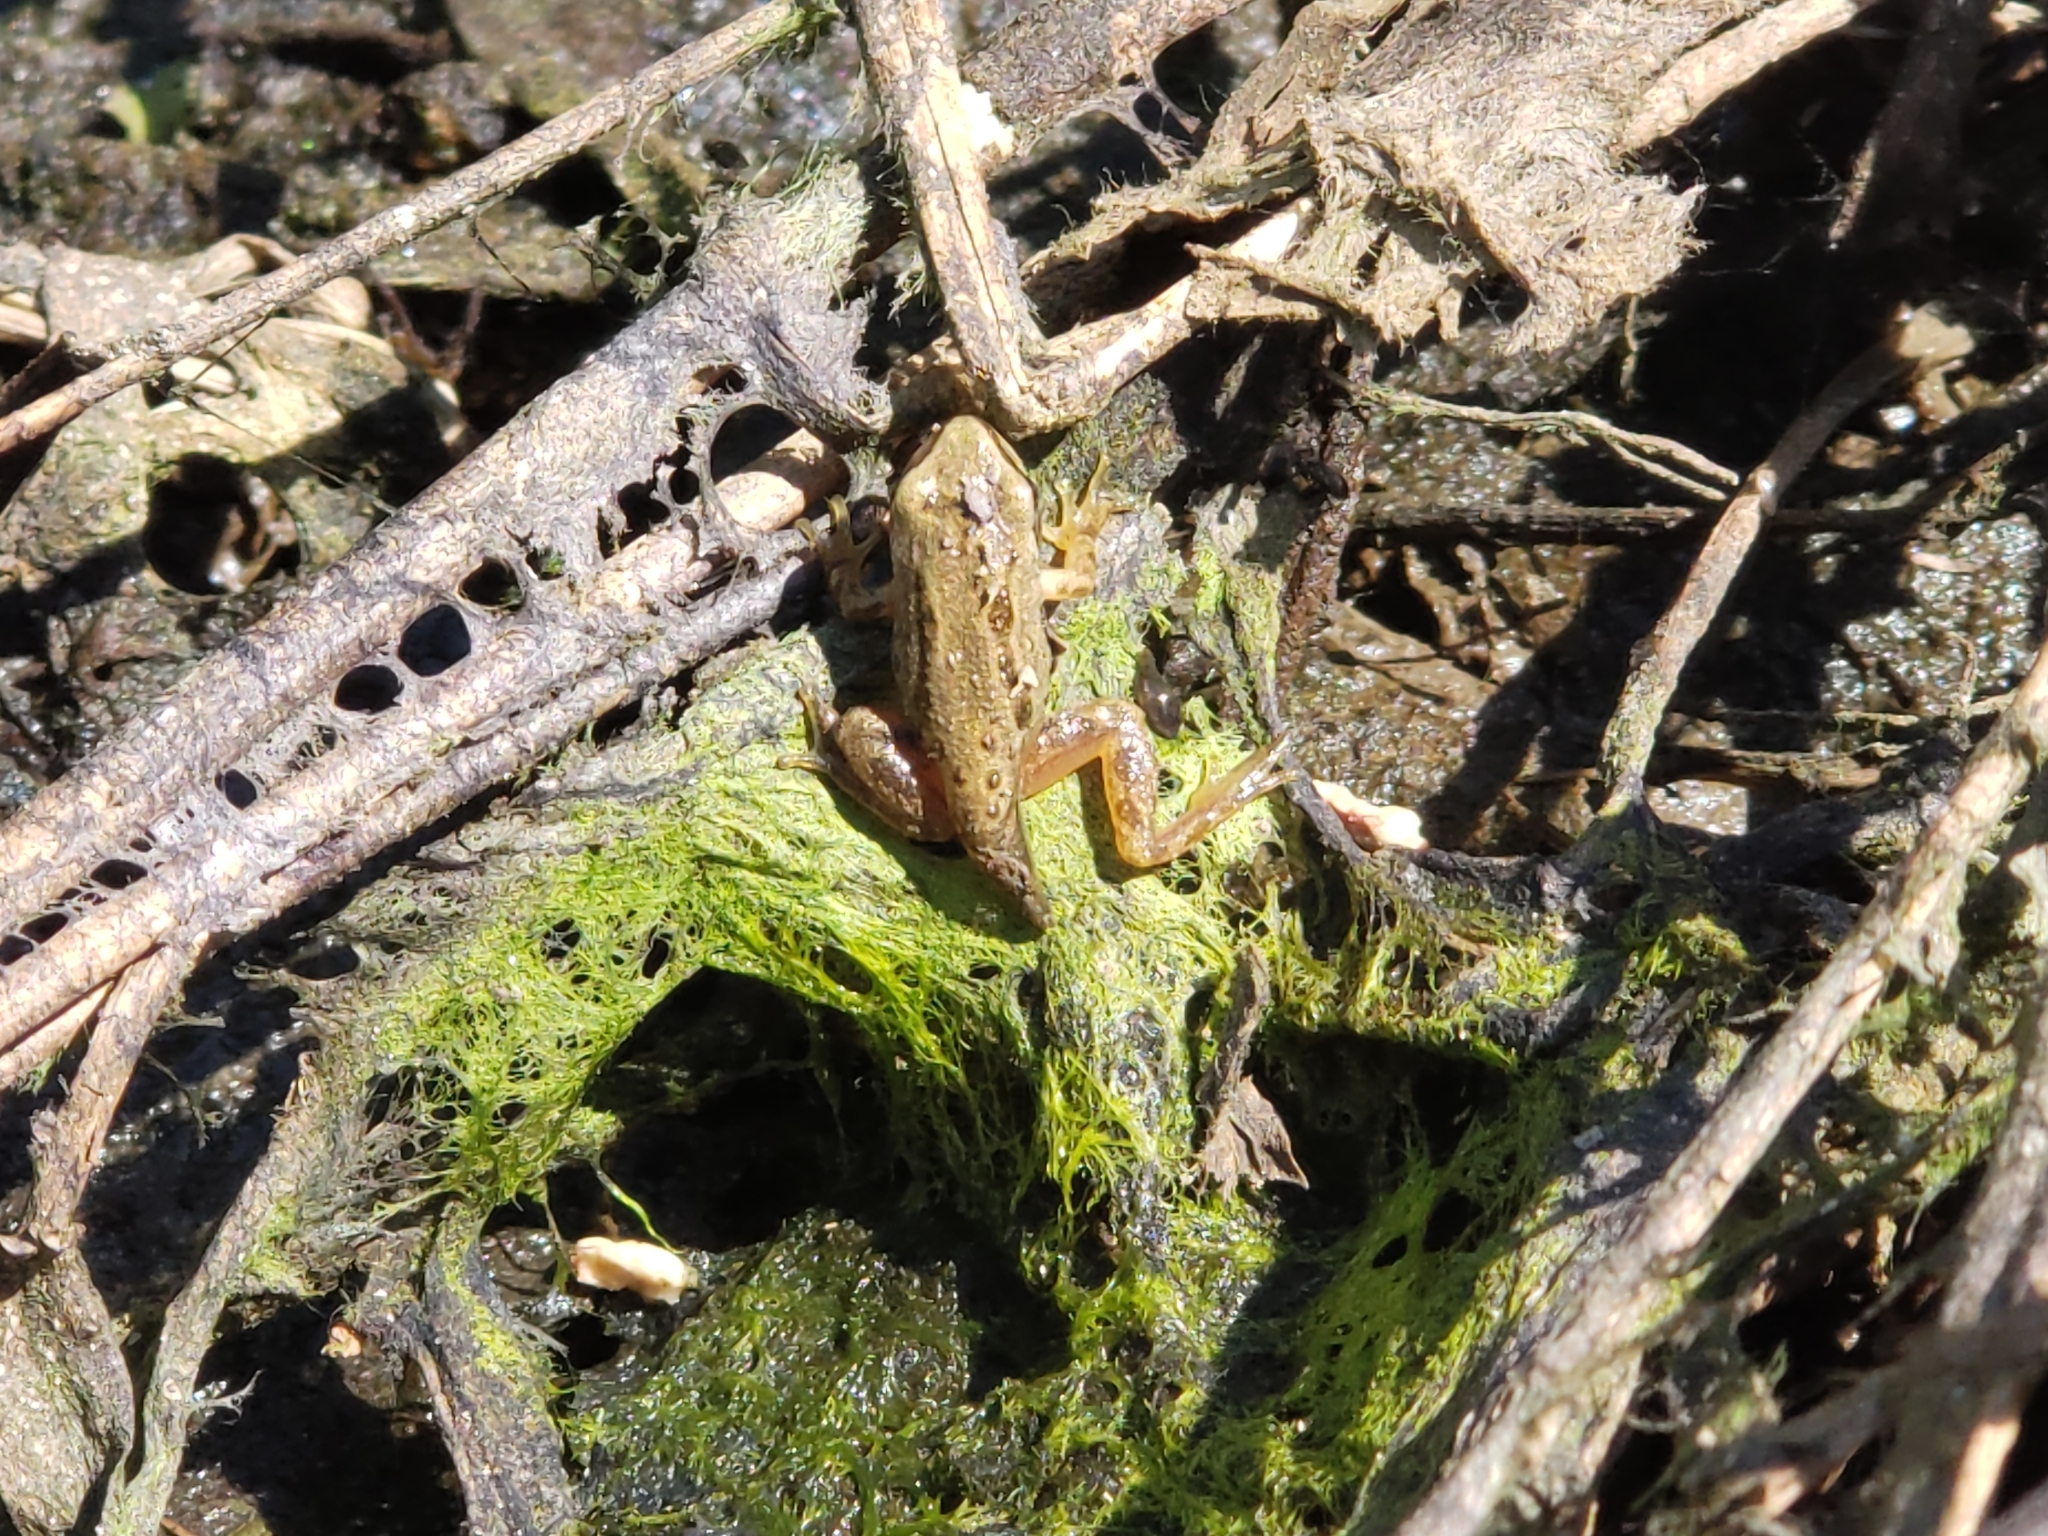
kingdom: Animalia
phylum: Chordata
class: Amphibia
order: Anura
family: Hylidae
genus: Pseudacris
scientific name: Pseudacris regilla
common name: Pacific chorus frog
